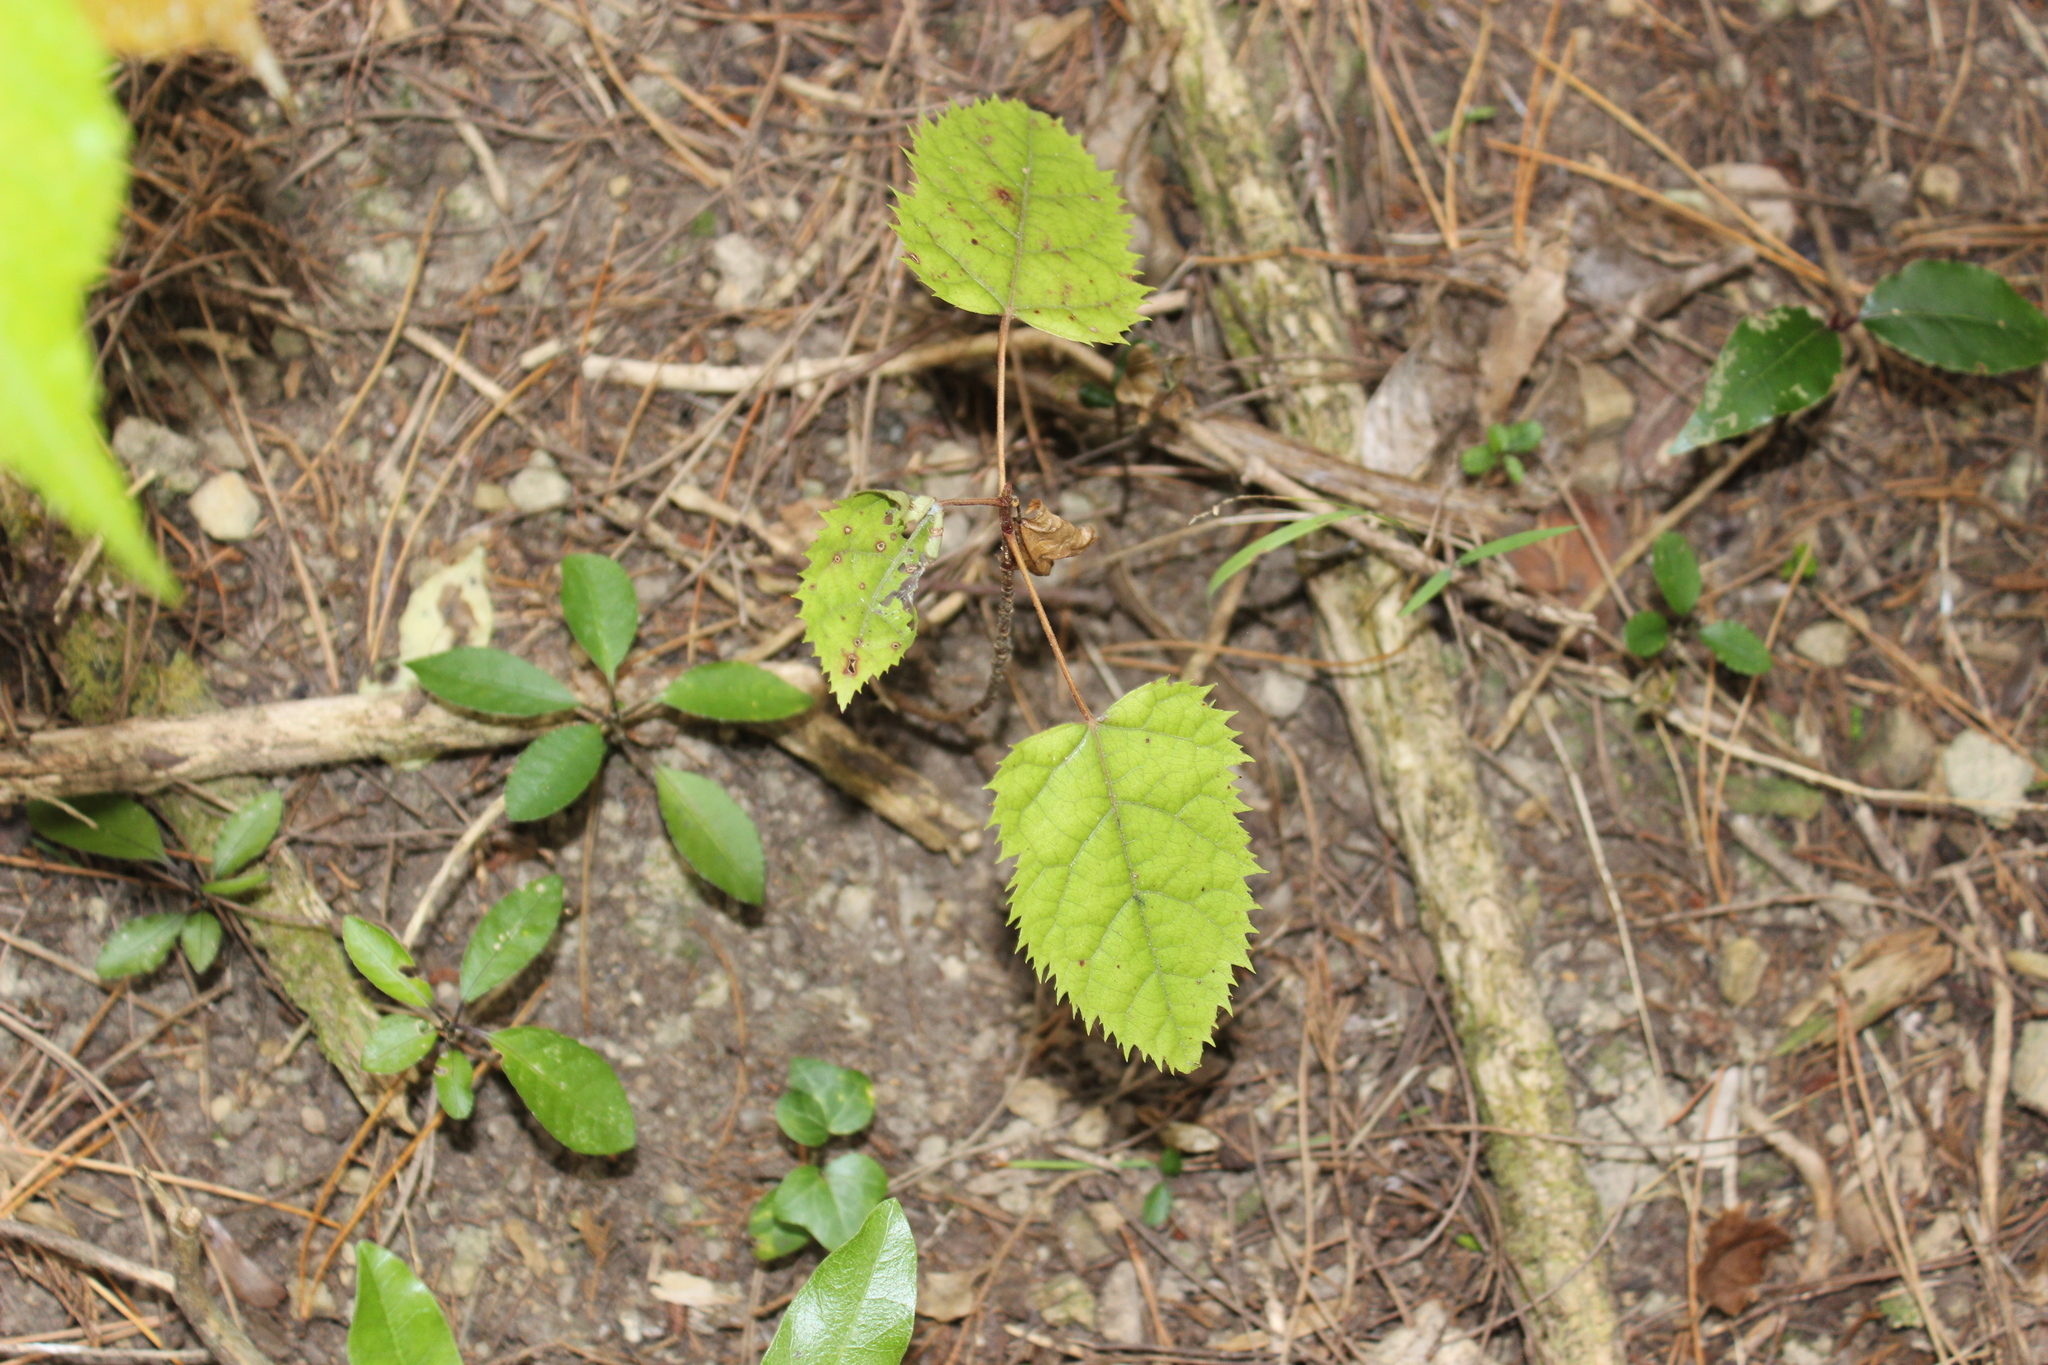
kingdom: Plantae
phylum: Tracheophyta
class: Magnoliopsida
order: Oxalidales
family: Elaeocarpaceae
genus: Aristotelia
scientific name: Aristotelia serrata
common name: New zealand wineberry
